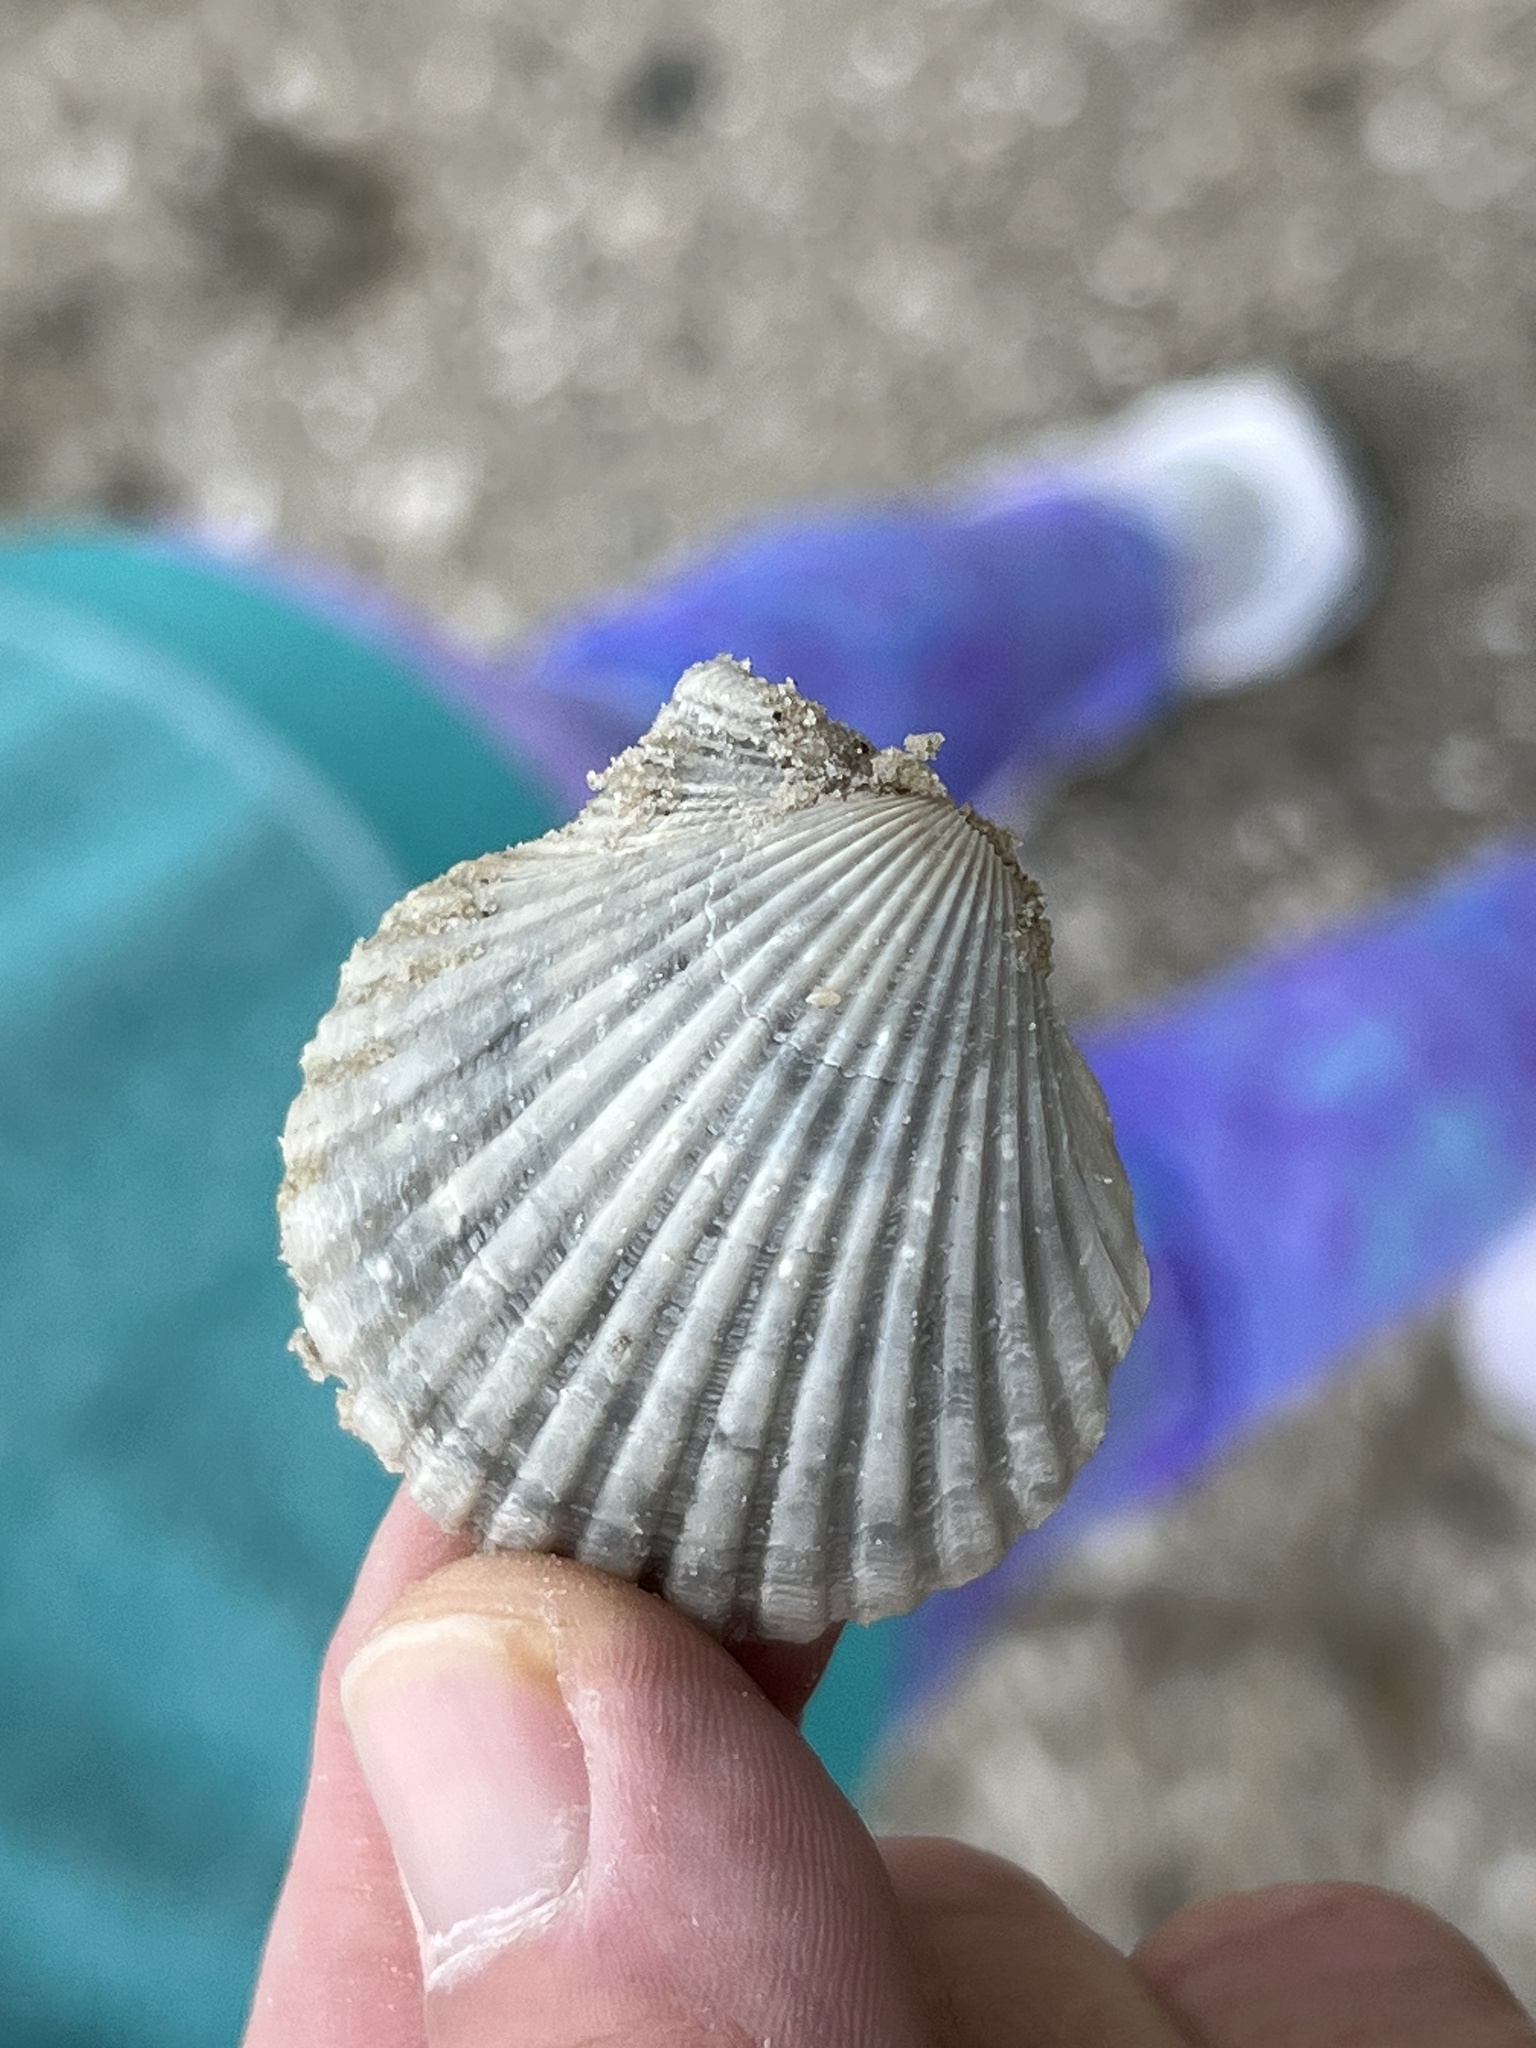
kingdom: Animalia
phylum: Mollusca
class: Bivalvia
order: Pectinida
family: Pectinidae
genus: Argopecten
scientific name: Argopecten irradians
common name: Atlantic bay scallop
